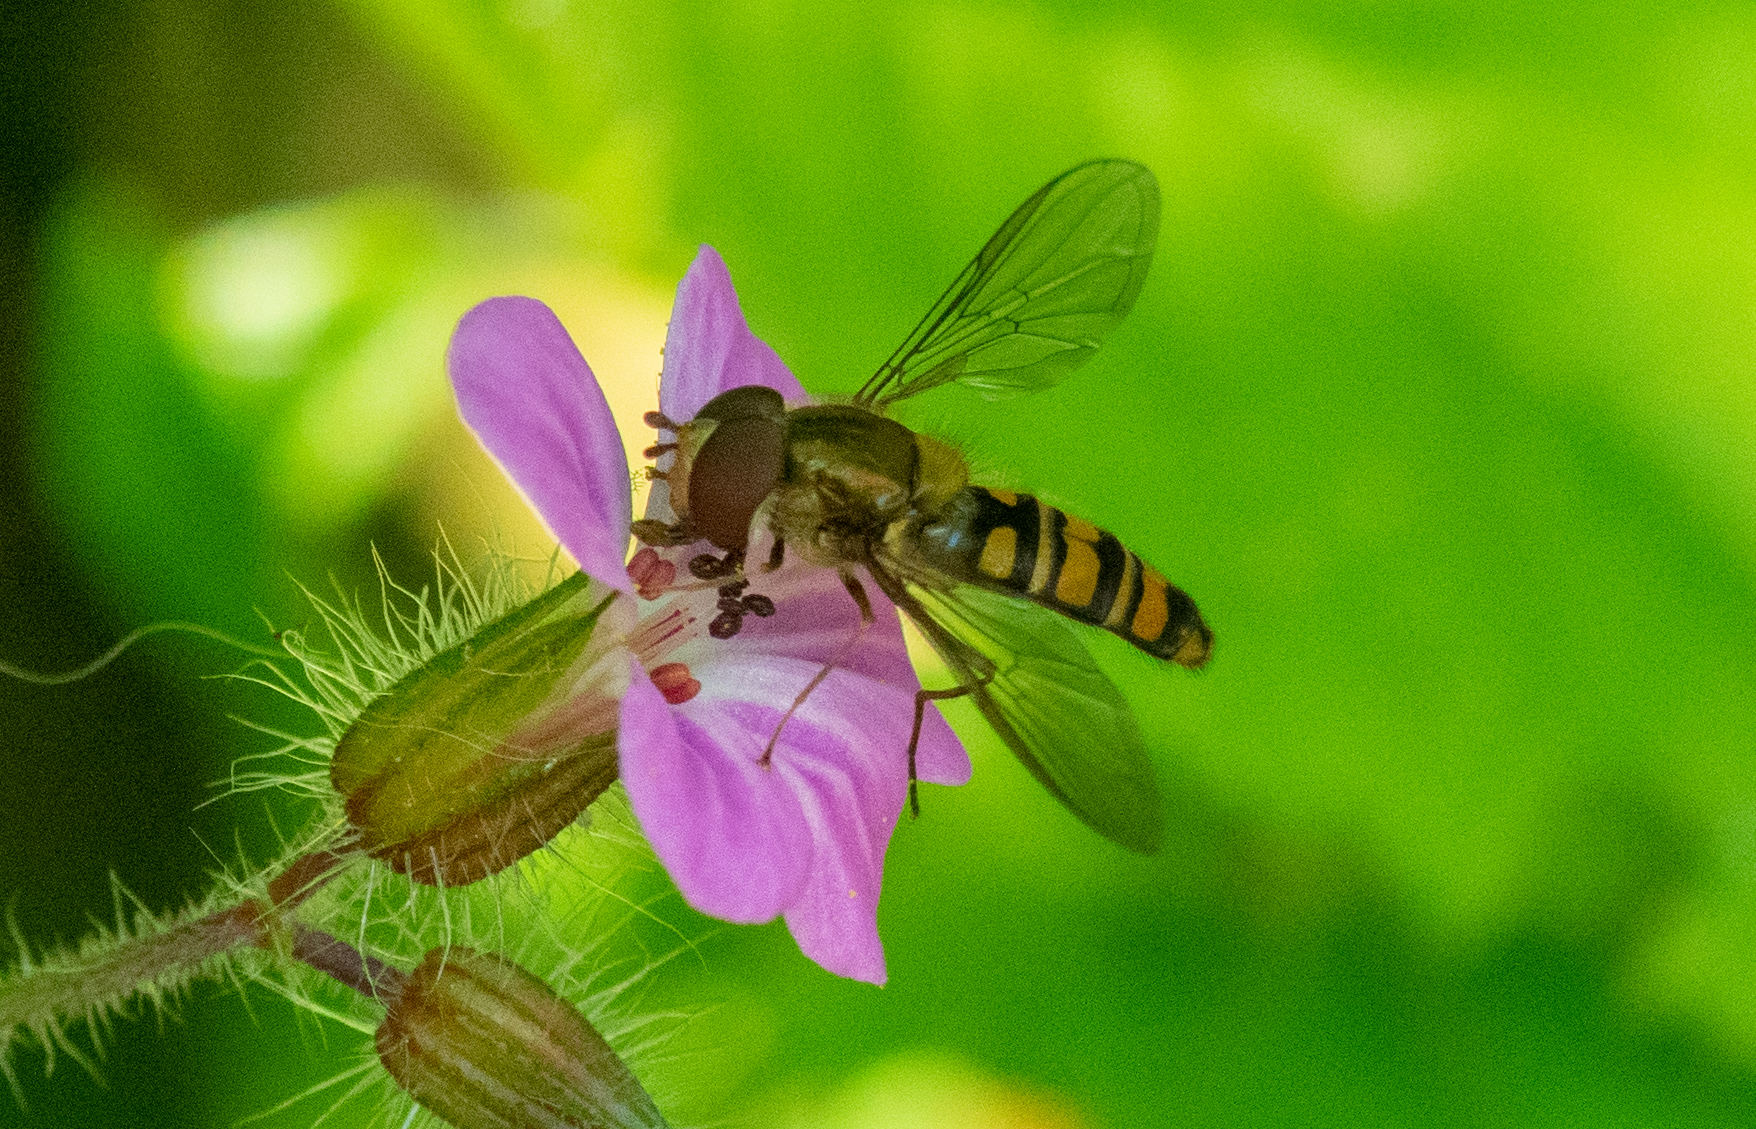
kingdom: Animalia
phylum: Arthropoda
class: Insecta
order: Diptera
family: Syrphidae
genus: Episyrphus
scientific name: Episyrphus balteatus
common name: Marmalade hoverfly
